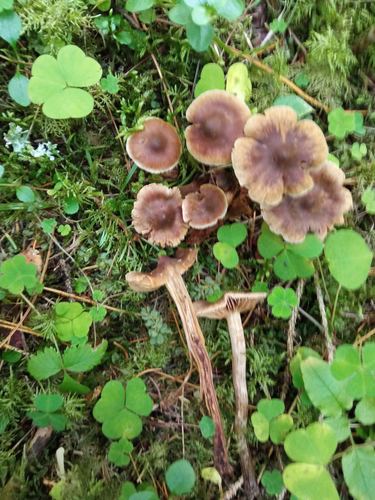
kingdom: Fungi
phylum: Basidiomycota
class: Agaricomycetes
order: Agaricales
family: Cortinariaceae
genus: Cortinarius
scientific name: Cortinarius brunneus
